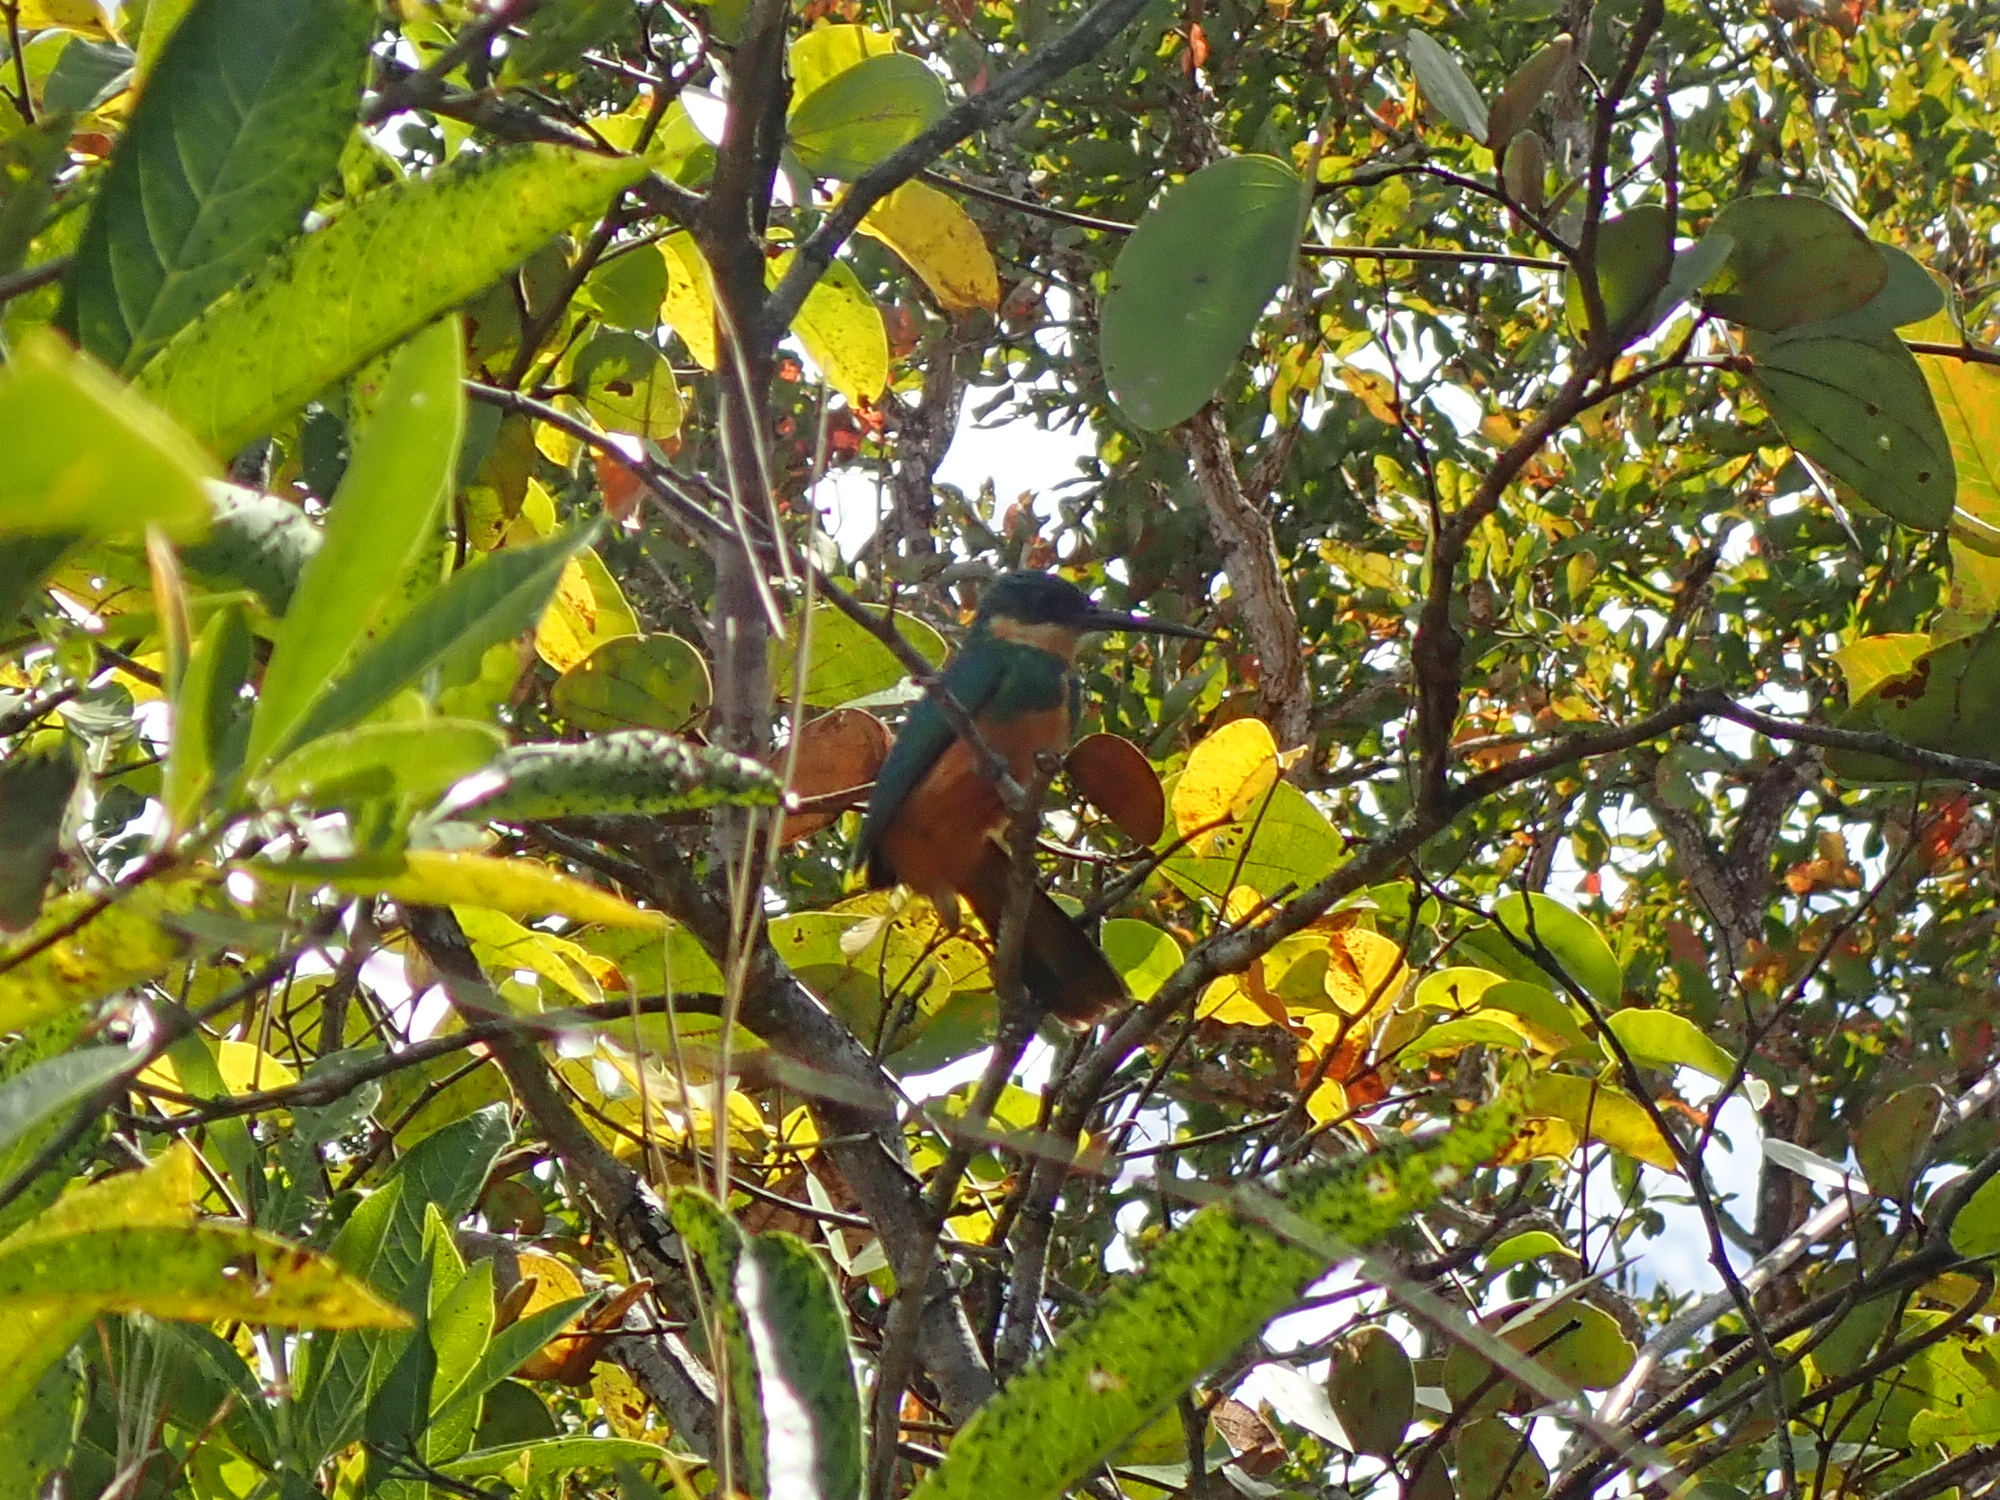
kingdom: Animalia
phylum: Chordata
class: Aves
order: Piciformes
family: Galbulidae
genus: Galbula
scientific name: Galbula ruficauda
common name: Rufous-tailed jacamar
